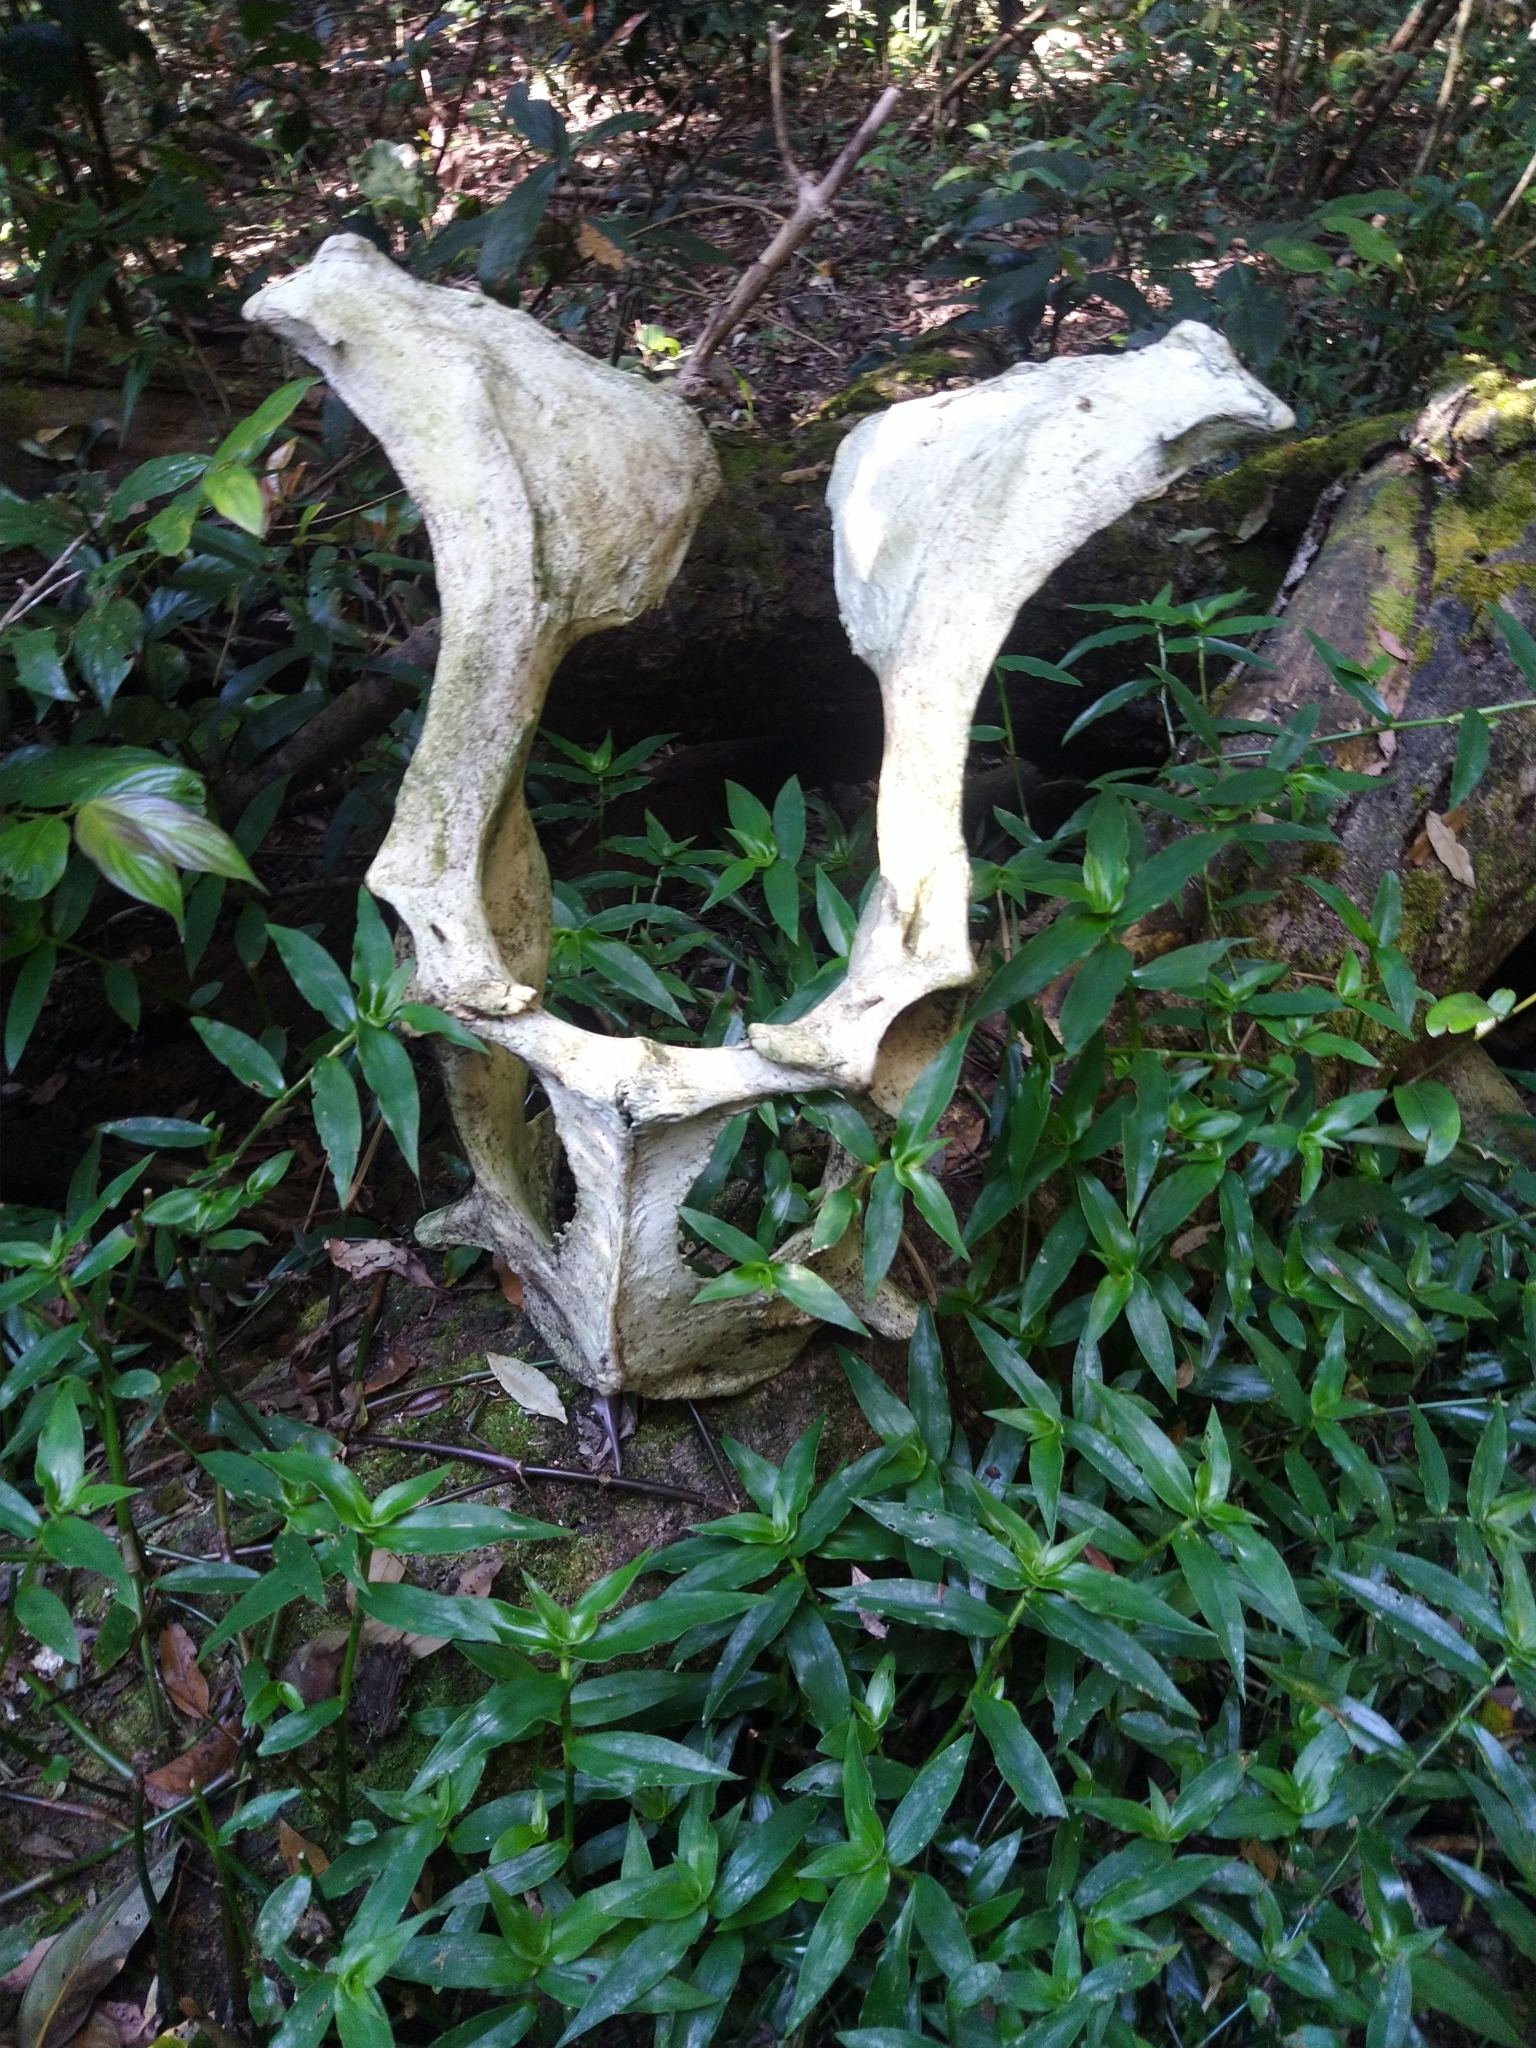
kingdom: Animalia
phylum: Chordata
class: Mammalia
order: Artiodactyla
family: Bovidae
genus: Bos
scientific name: Bos frontalis
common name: Gaur
